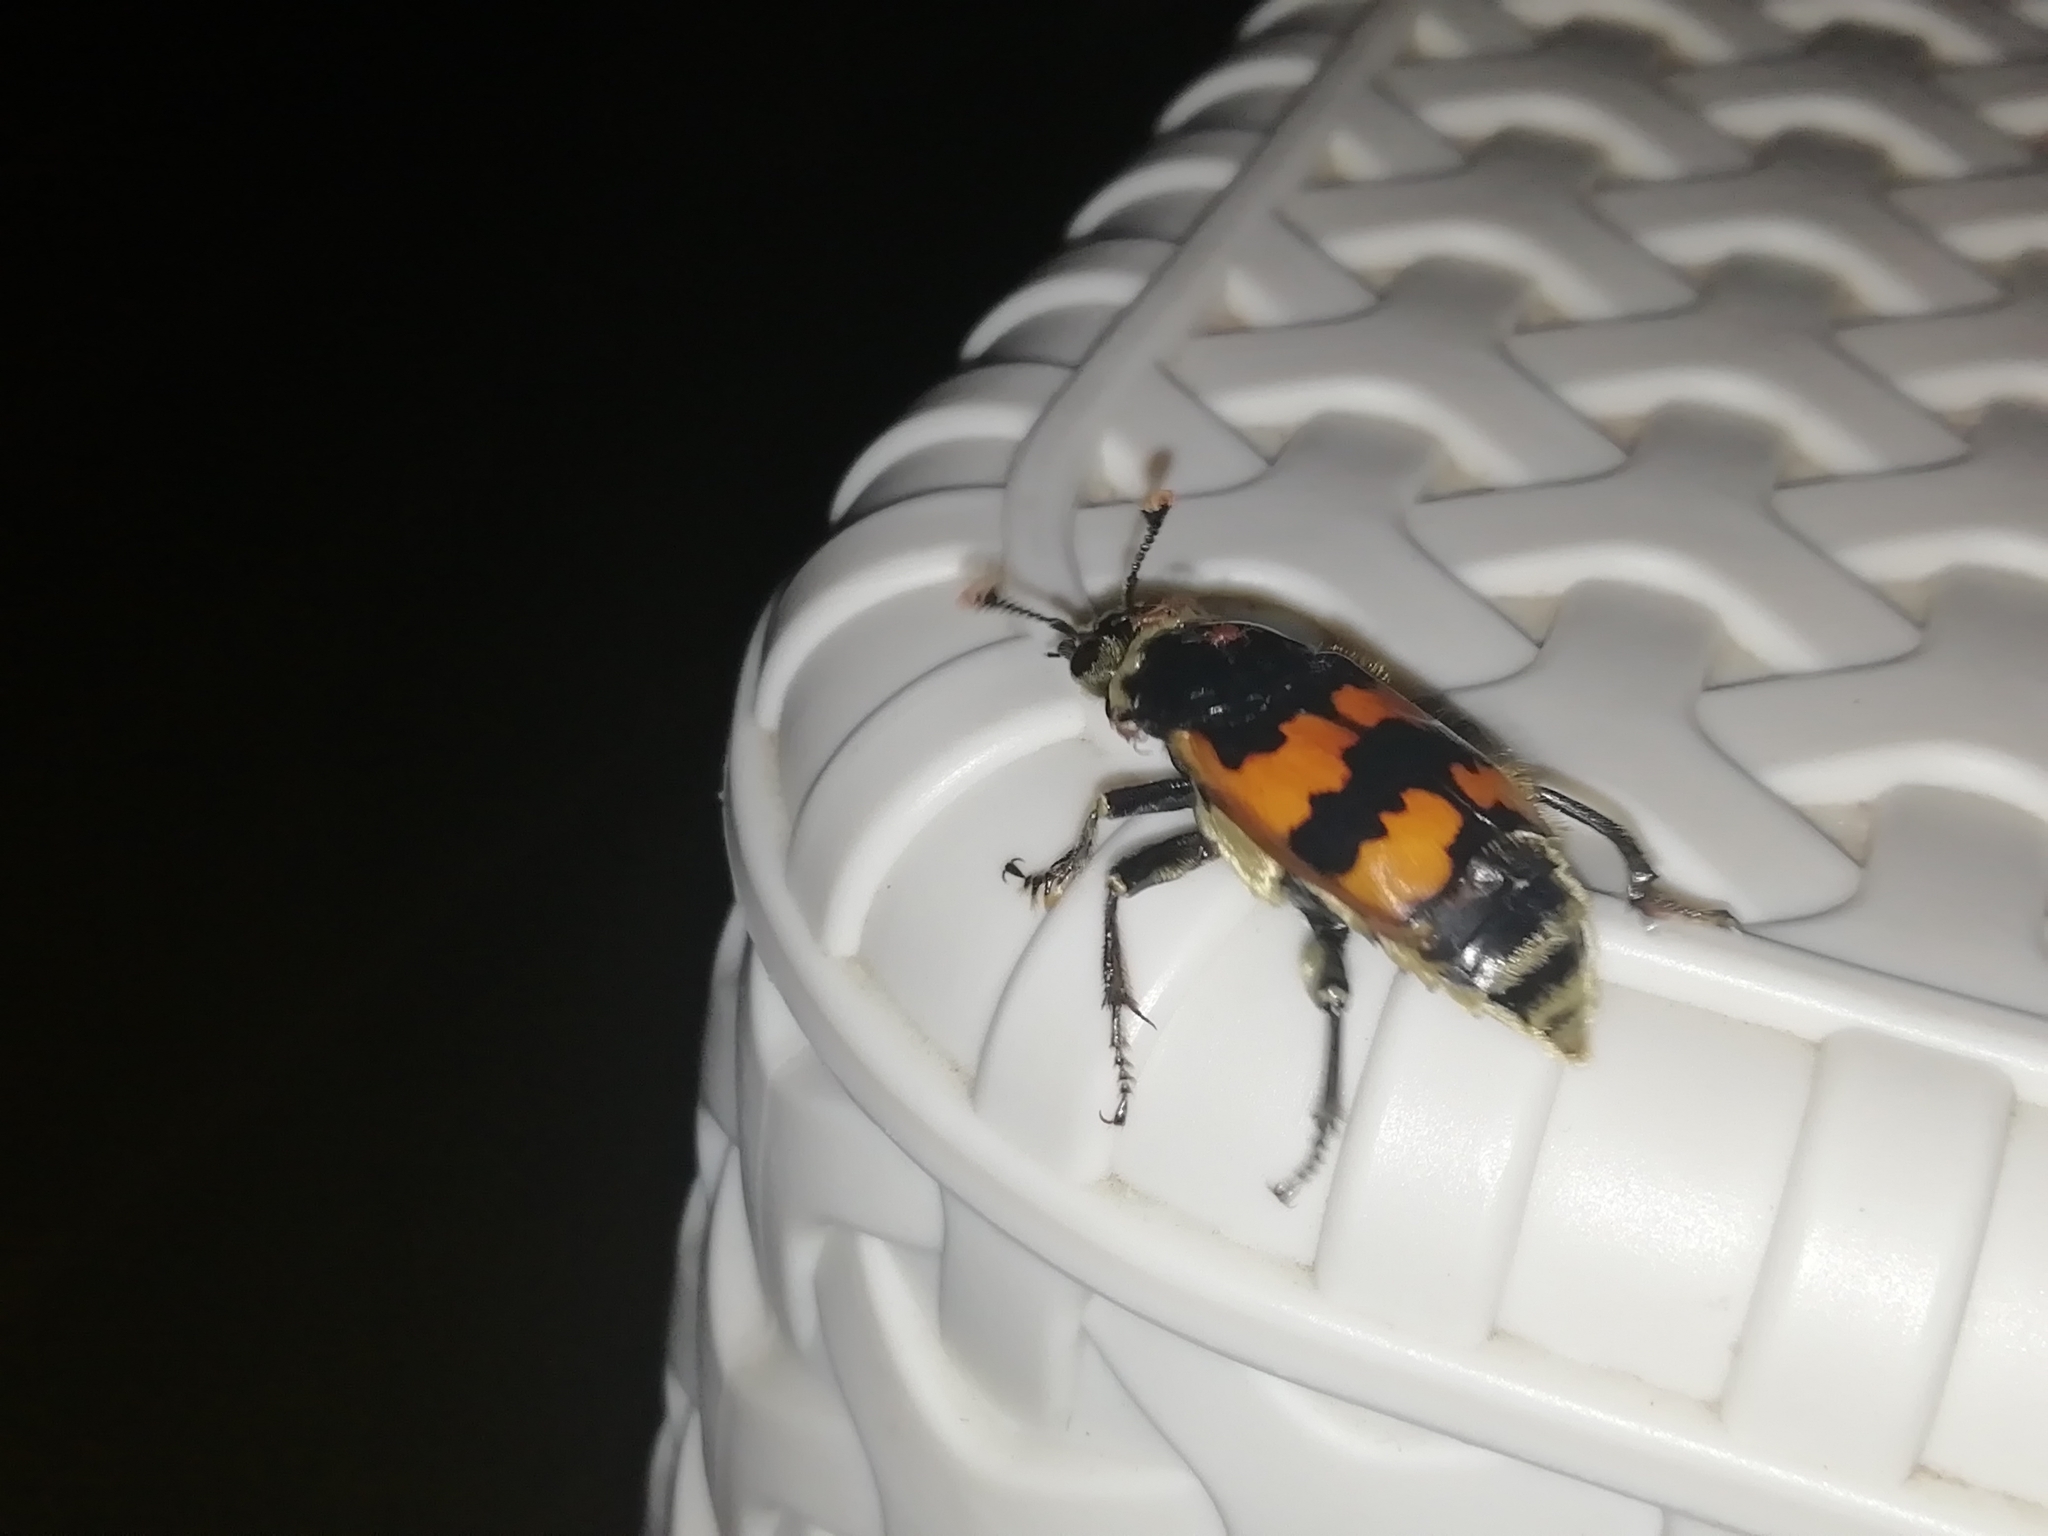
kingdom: Animalia
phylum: Arthropoda
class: Insecta
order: Coleoptera
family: Staphylinidae
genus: Nicrophorus
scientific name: Nicrophorus vespillo
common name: Common burying beetle
